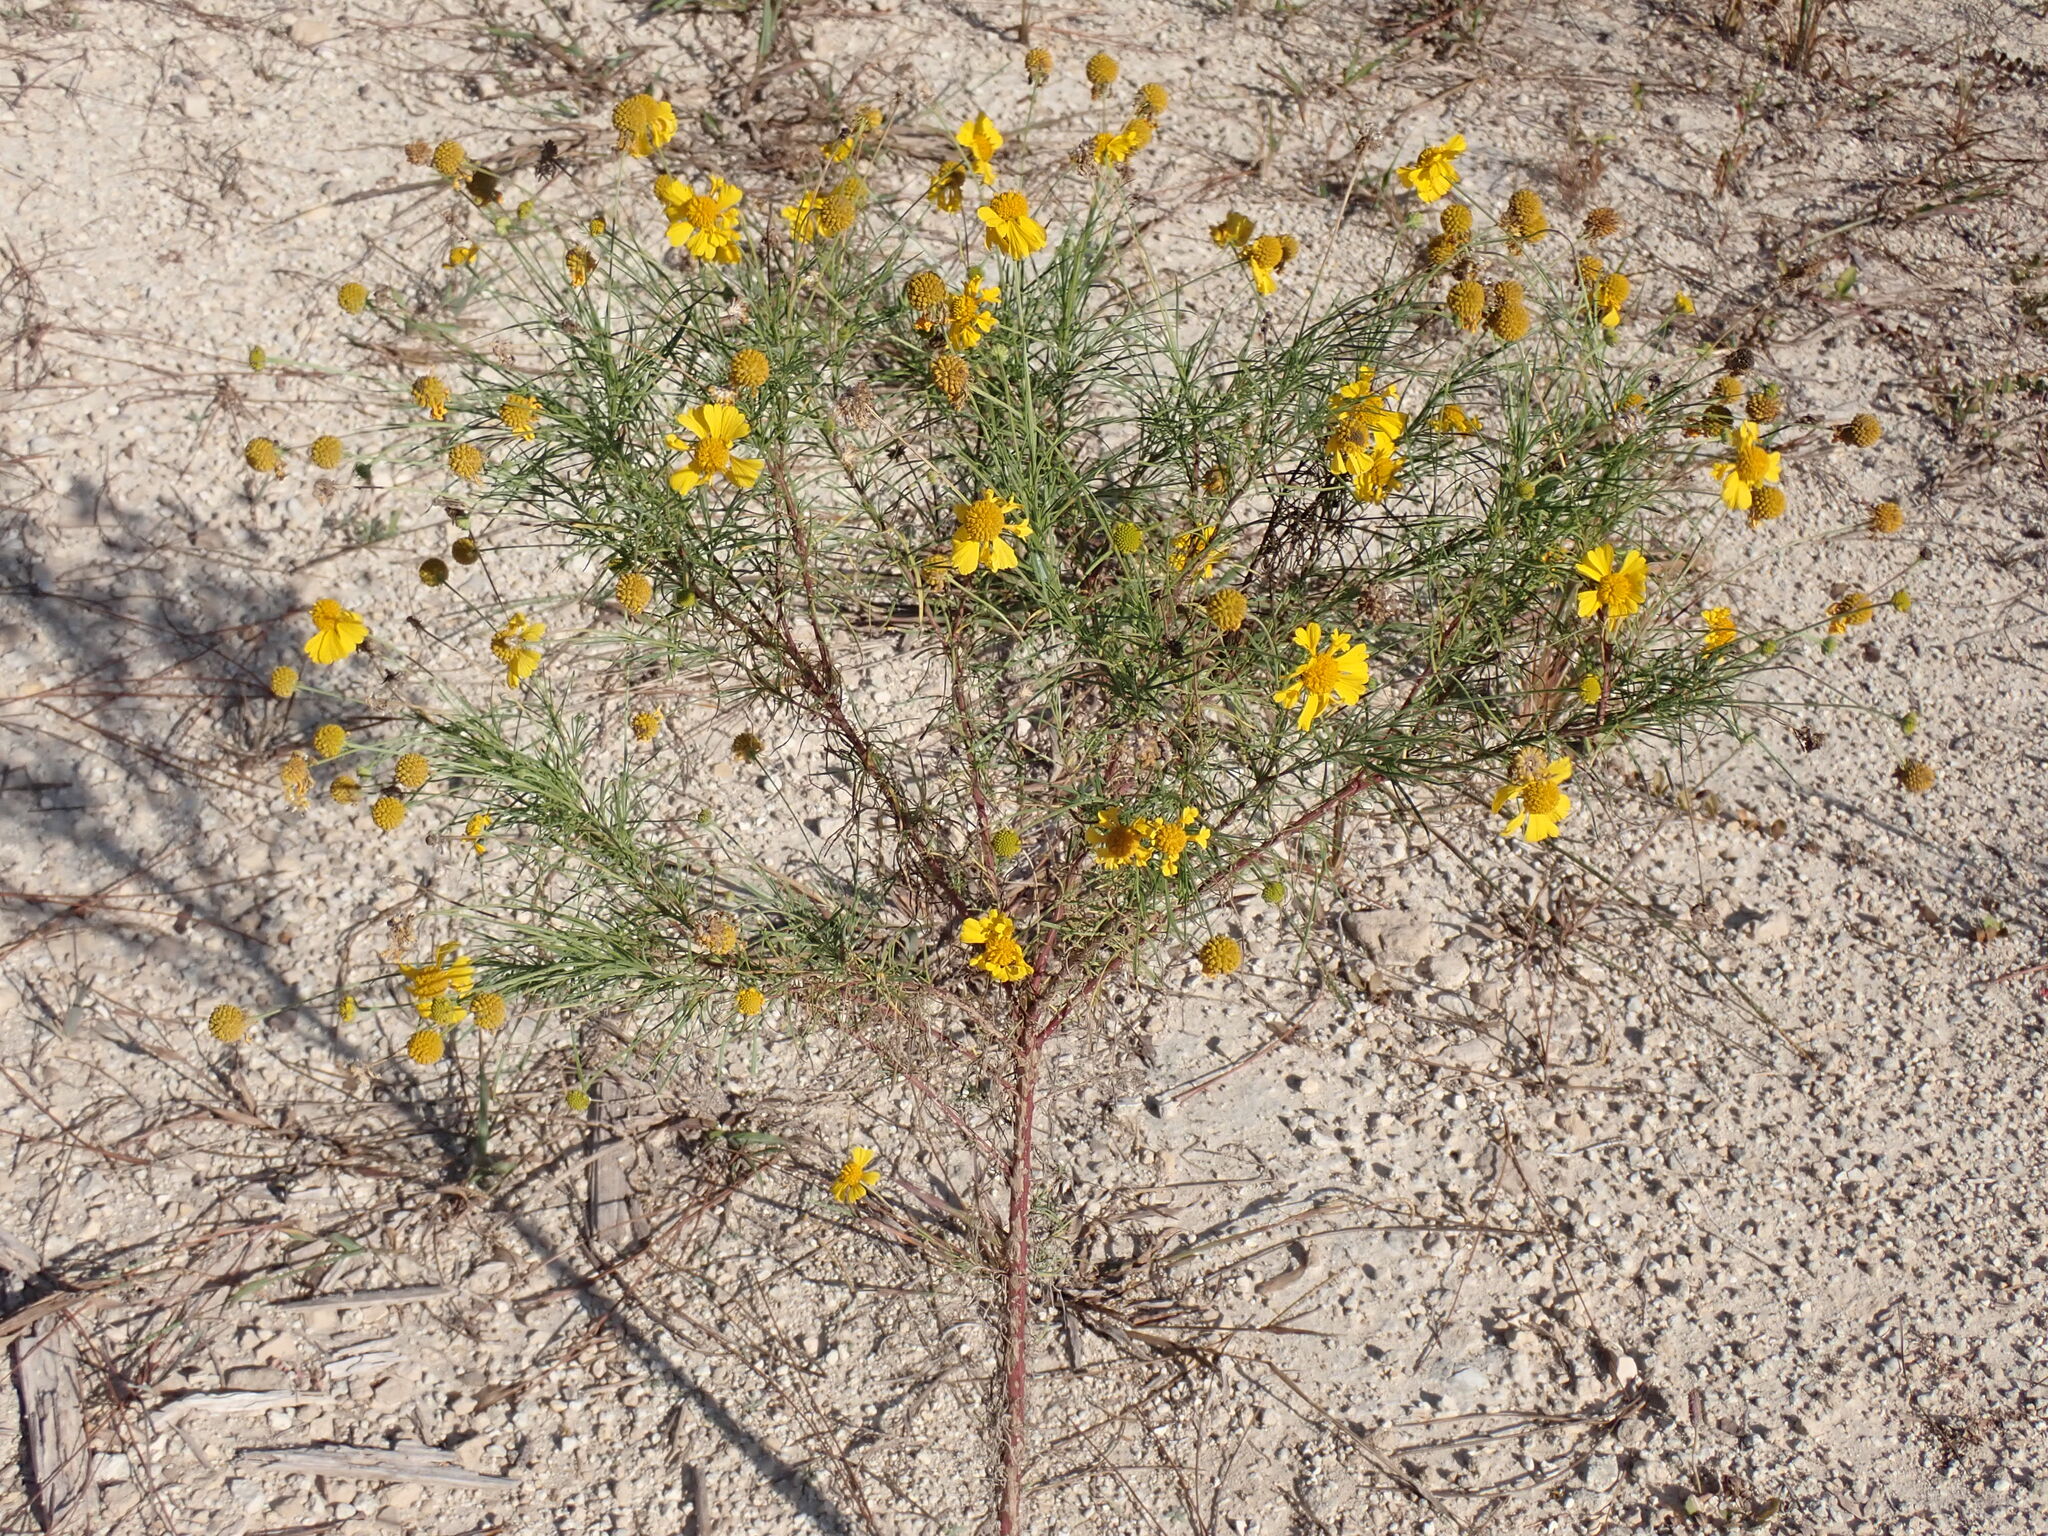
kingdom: Plantae
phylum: Tracheophyta
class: Magnoliopsida
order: Asterales
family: Asteraceae
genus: Helenium
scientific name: Helenium amarum
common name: Bitter sneezeweed
